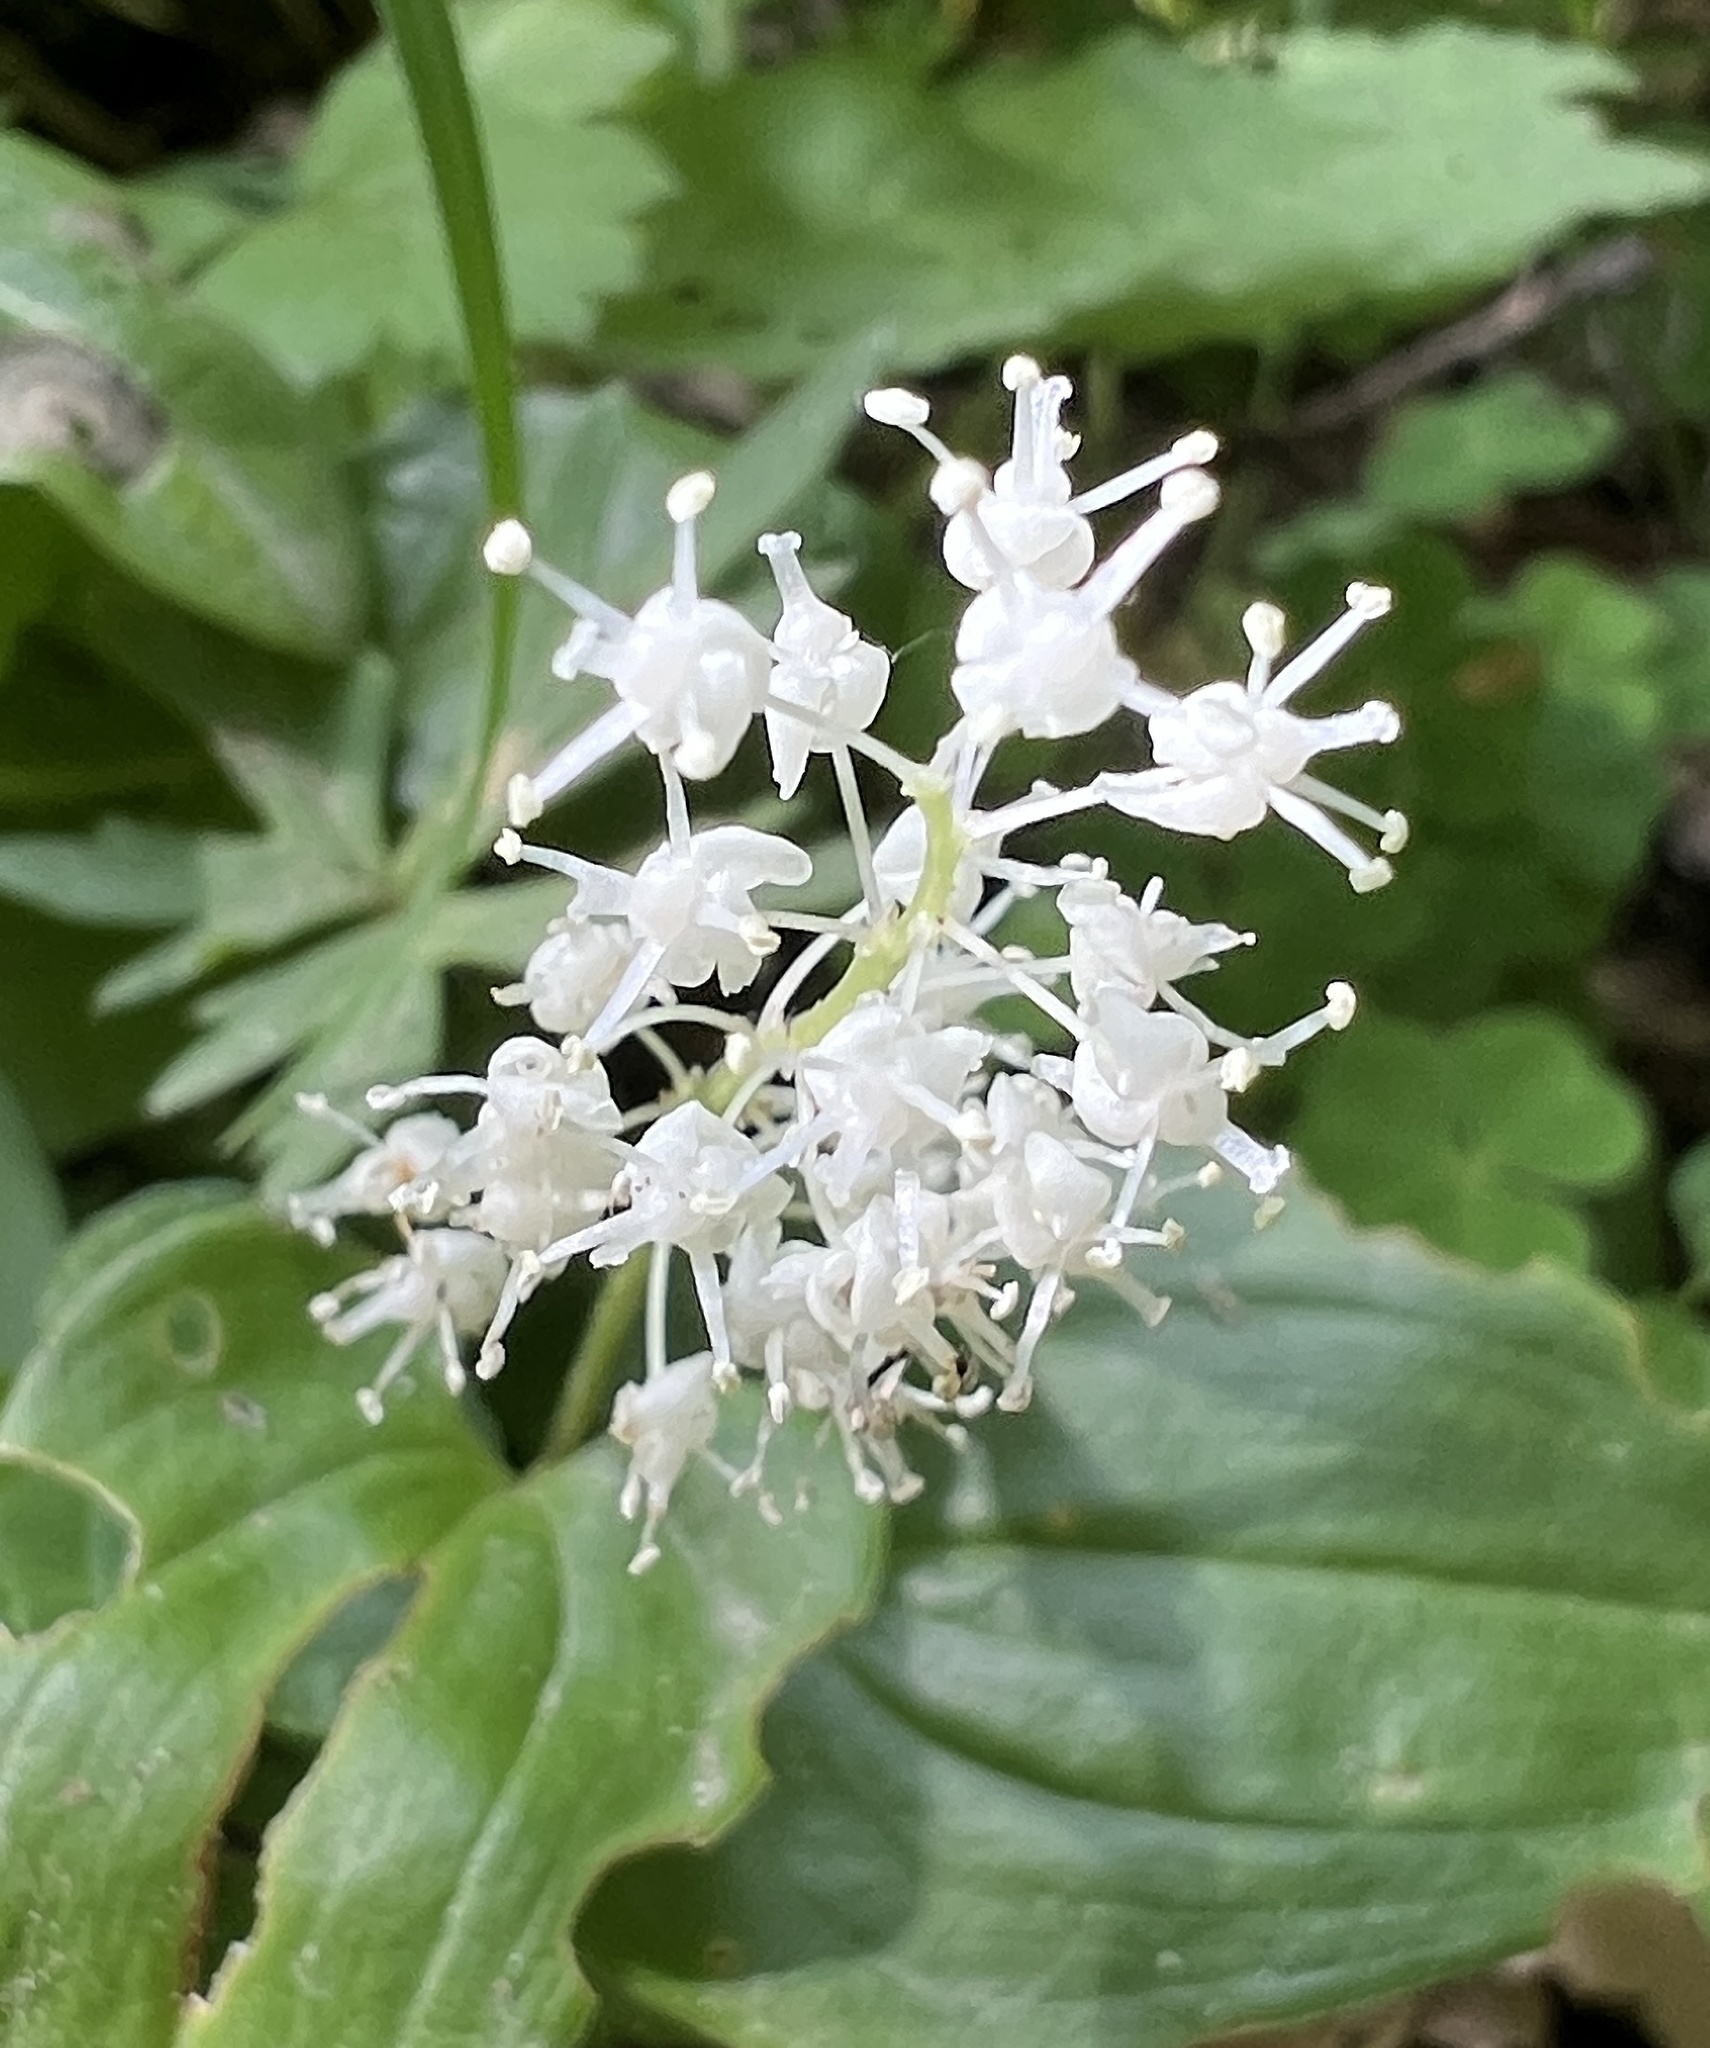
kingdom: Plantae
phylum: Tracheophyta
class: Liliopsida
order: Asparagales
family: Asparagaceae
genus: Maianthemum
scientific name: Maianthemum bifolium
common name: May lily
